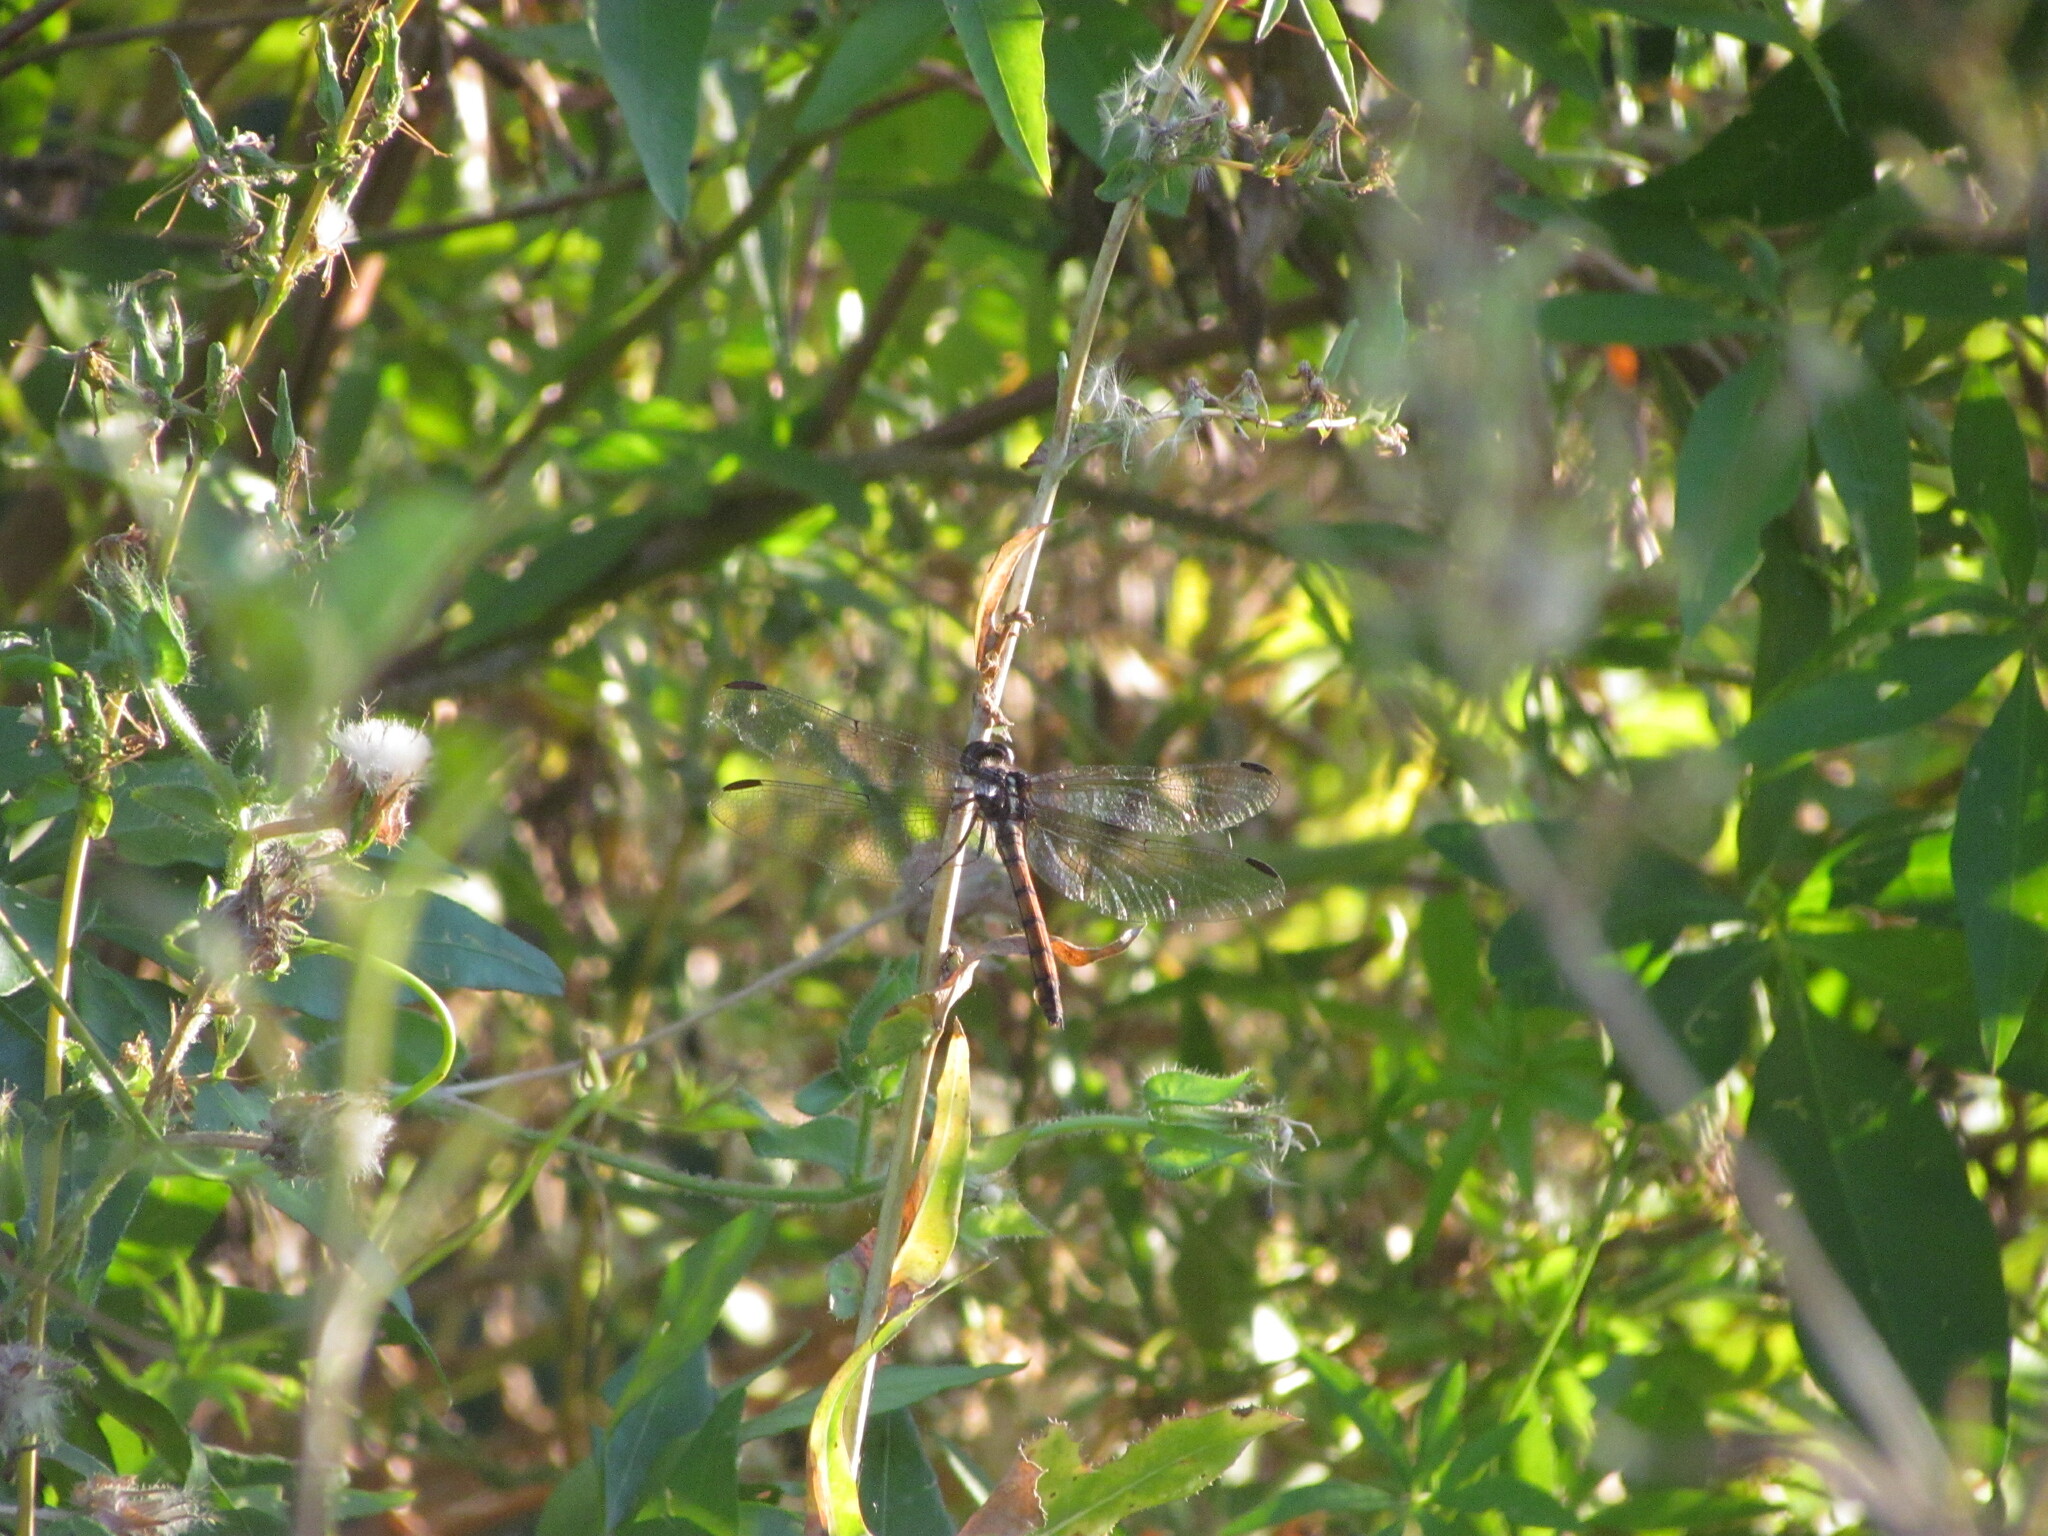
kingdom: Animalia
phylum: Arthropoda
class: Insecta
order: Odonata
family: Libellulidae
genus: Orthemis
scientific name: Orthemis ambinigra
